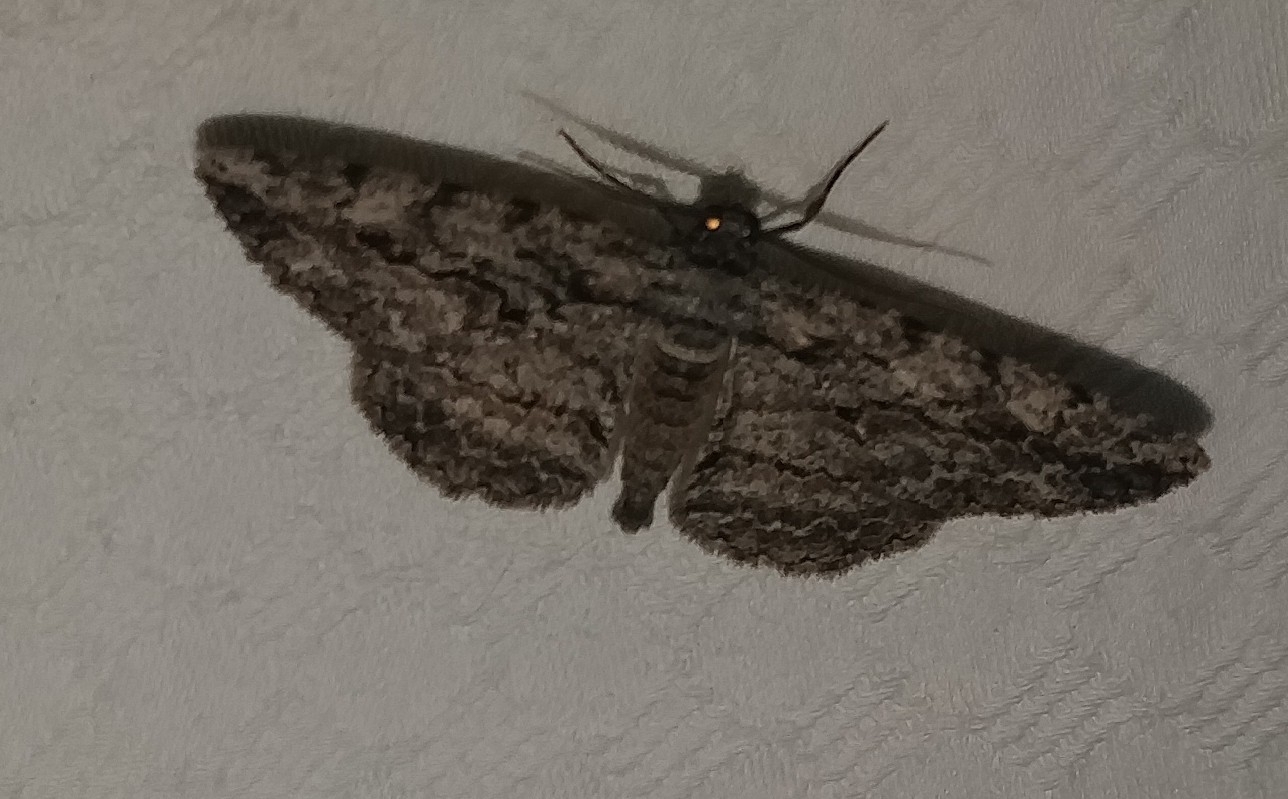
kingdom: Animalia
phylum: Arthropoda
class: Insecta
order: Lepidoptera
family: Geometridae
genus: Anavitrinella
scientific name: Anavitrinella pampinaria
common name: Common gray
